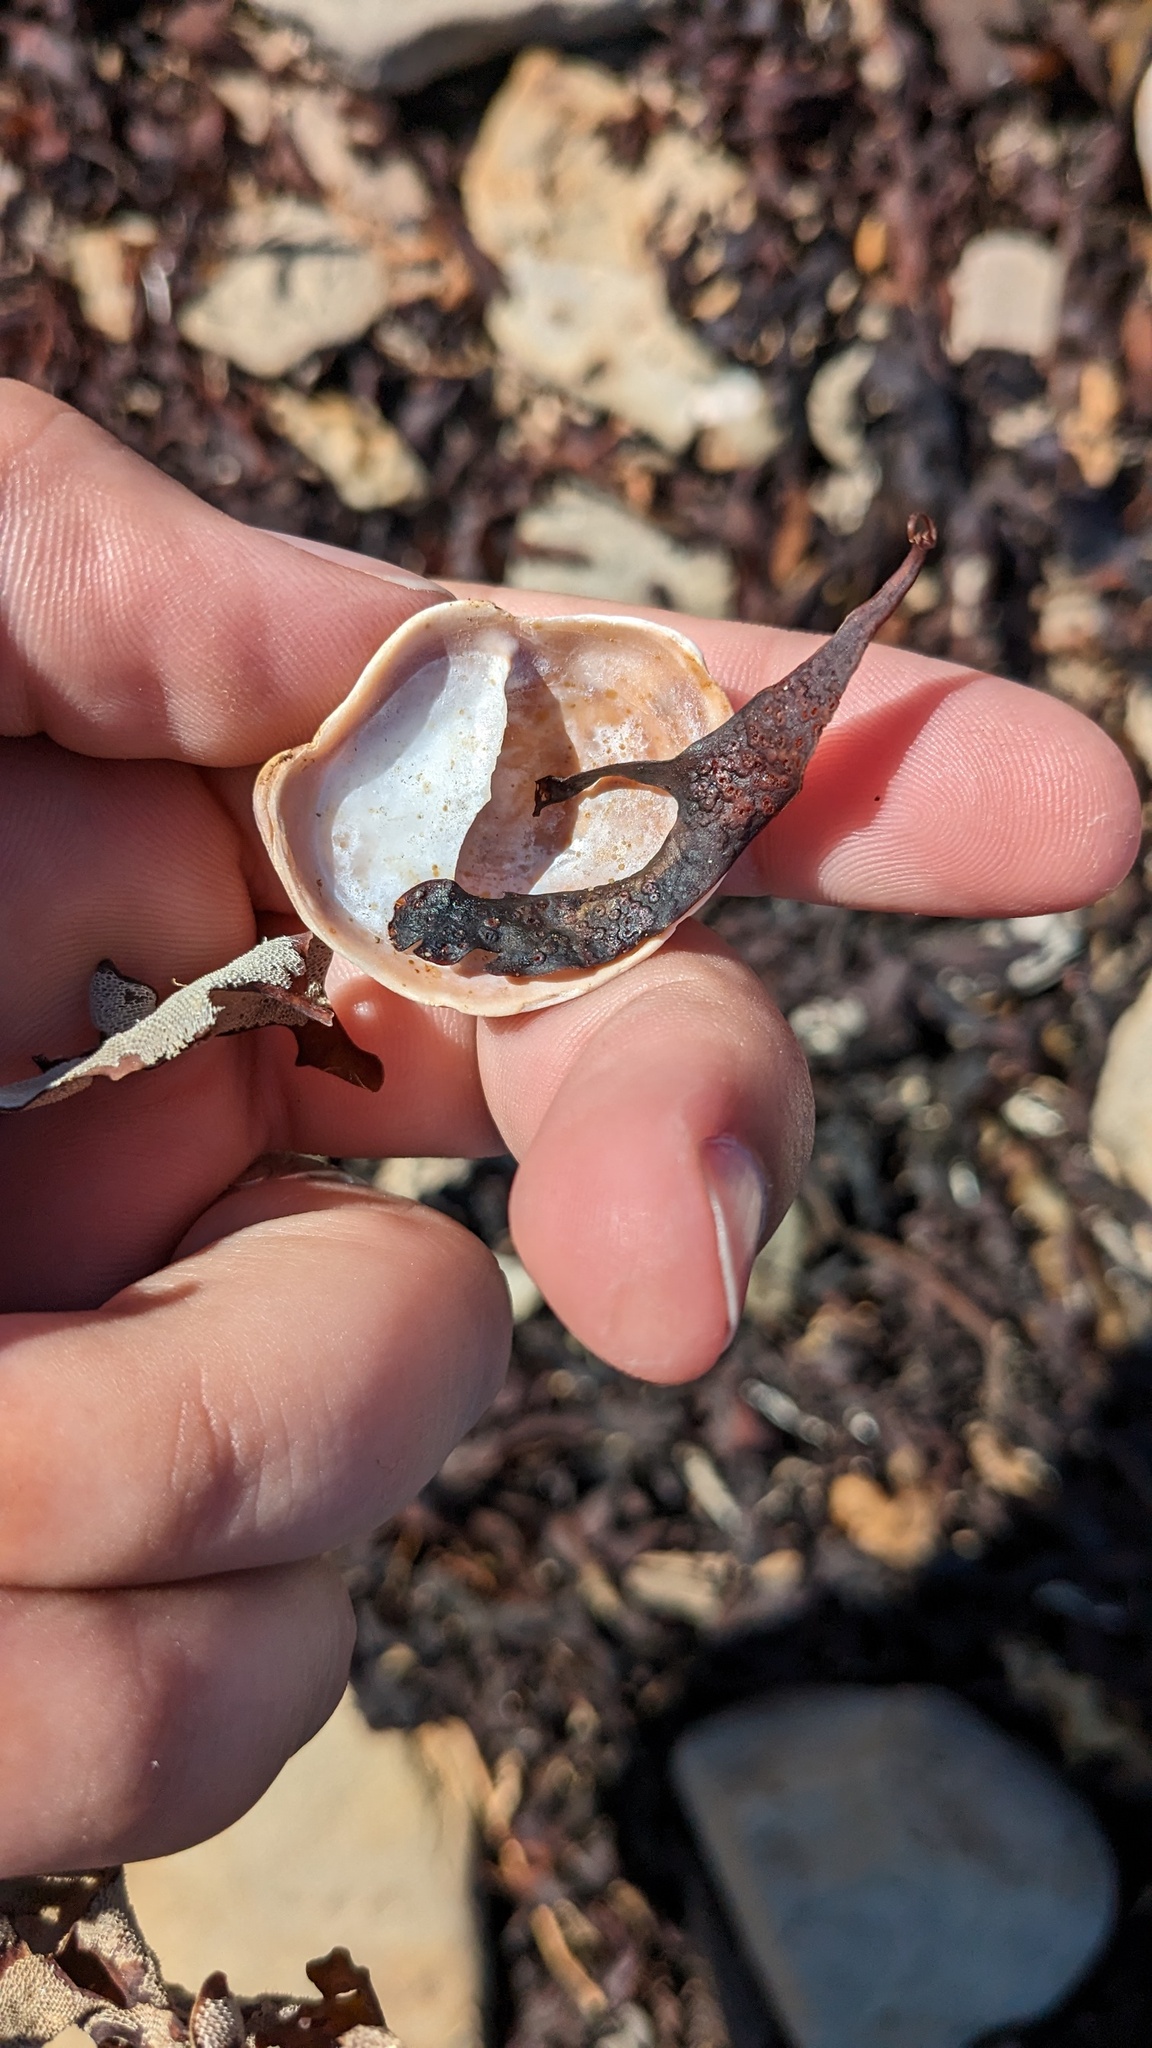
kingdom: Animalia
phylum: Mollusca
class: Gastropoda
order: Littorinimorpha
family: Calyptraeidae
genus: Crepidula
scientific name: Crepidula fornicata
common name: Slipper limpet
